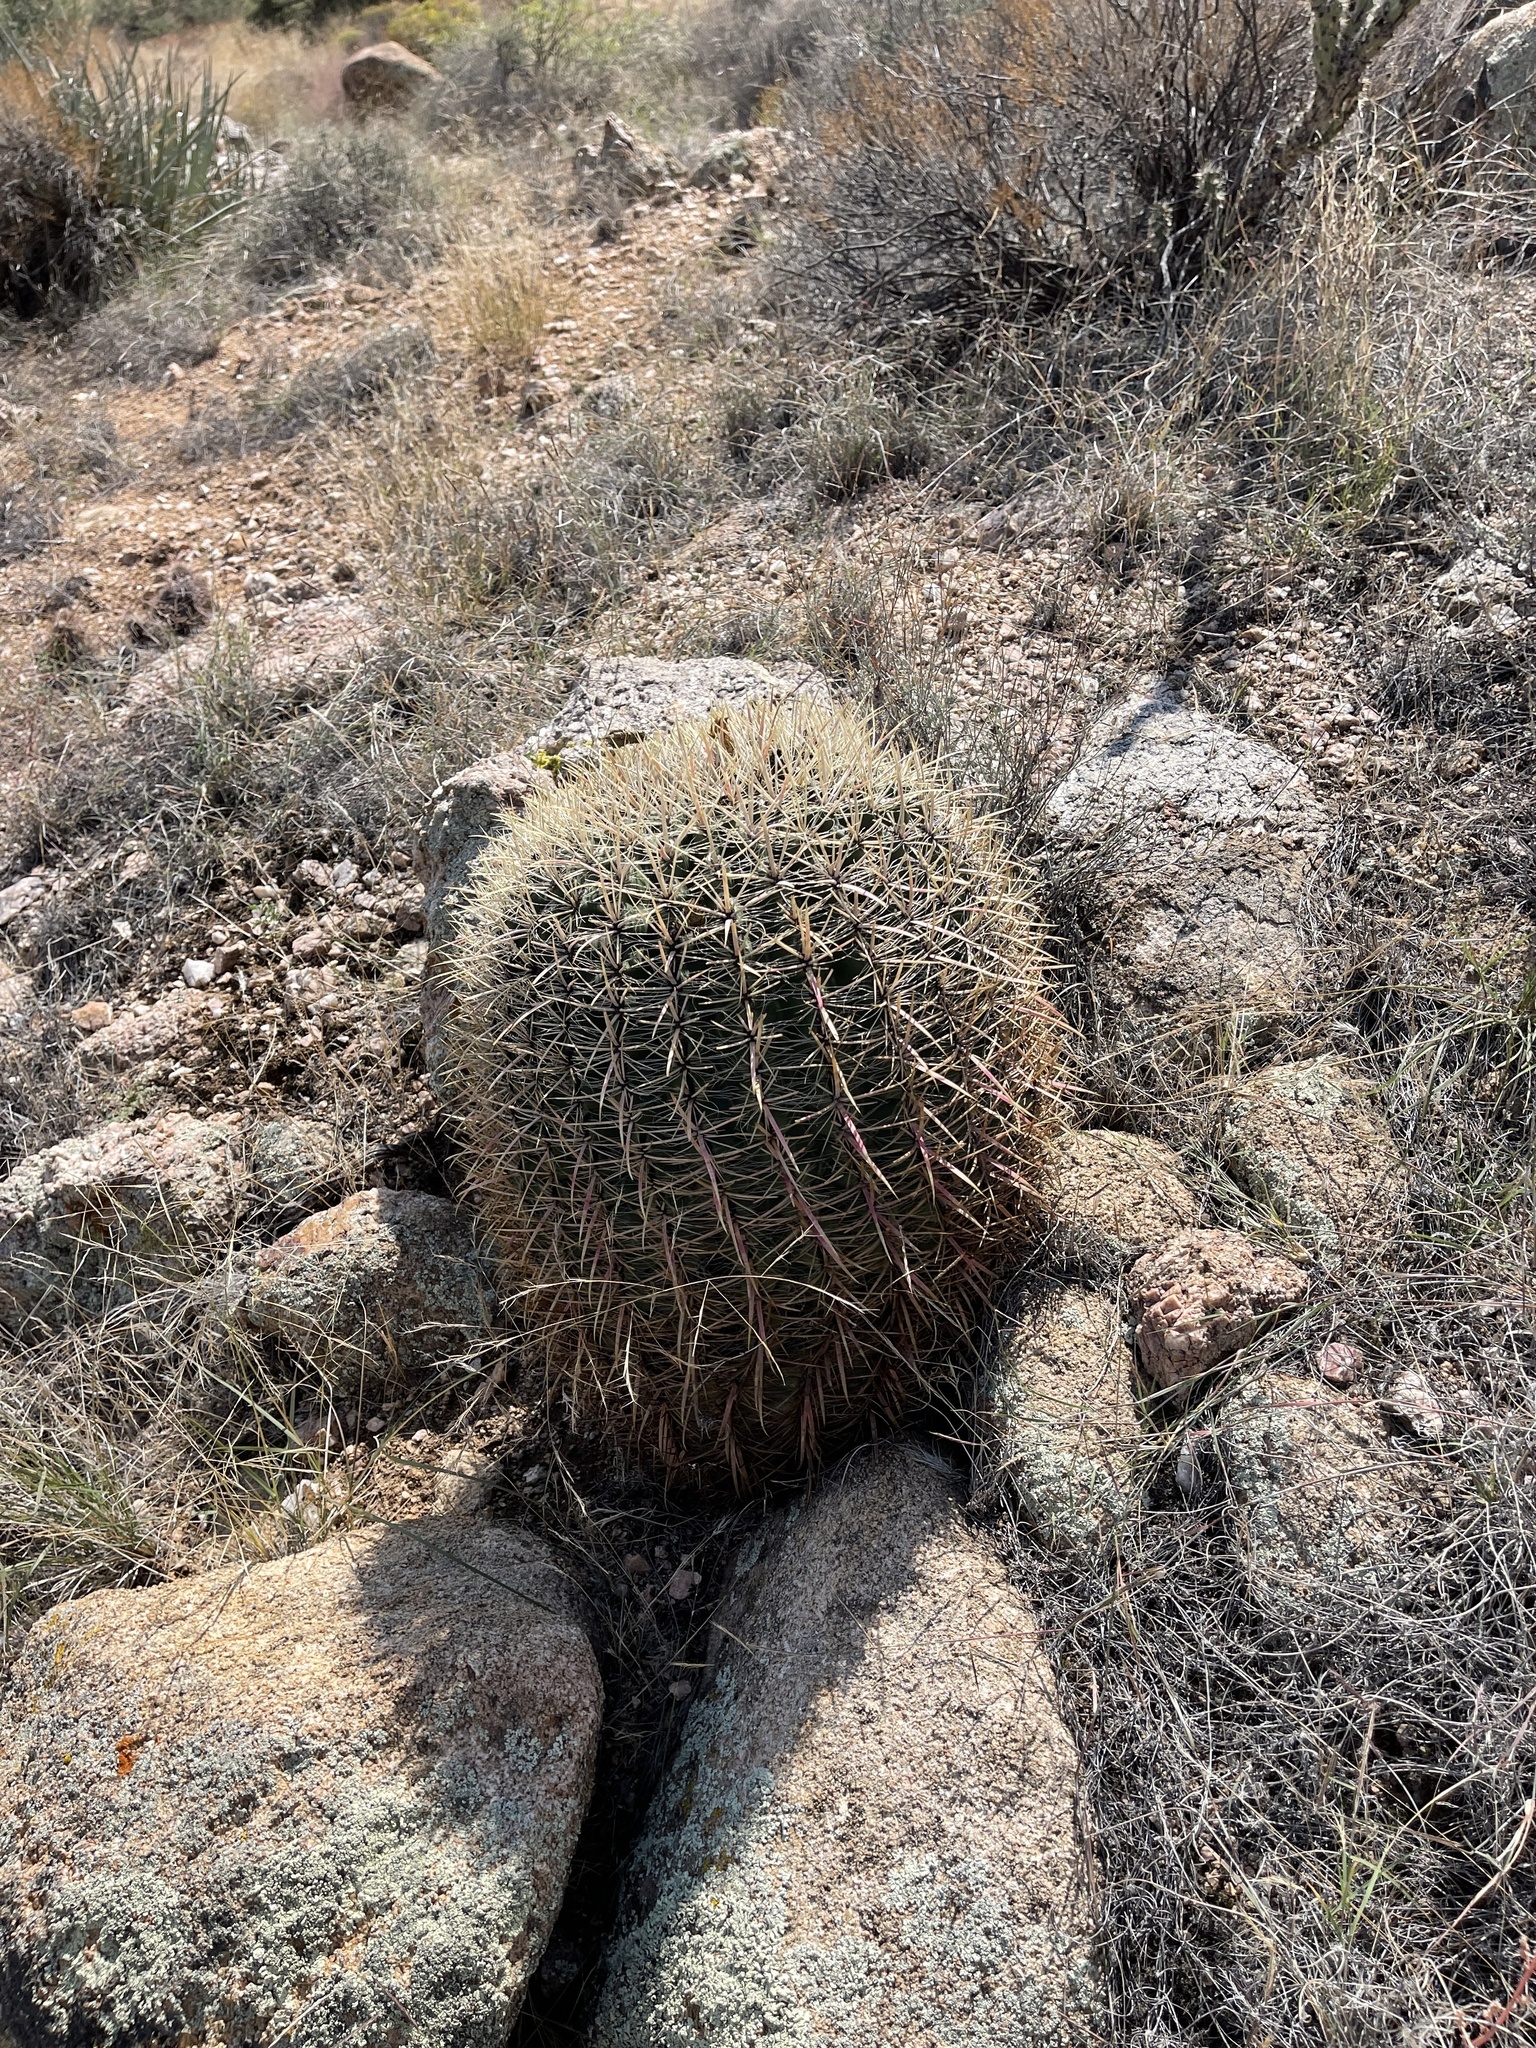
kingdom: Plantae
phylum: Tracheophyta
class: Magnoliopsida
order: Caryophyllales
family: Cactaceae
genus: Ferocactus
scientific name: Ferocactus cylindraceus
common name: California barrel cactus
